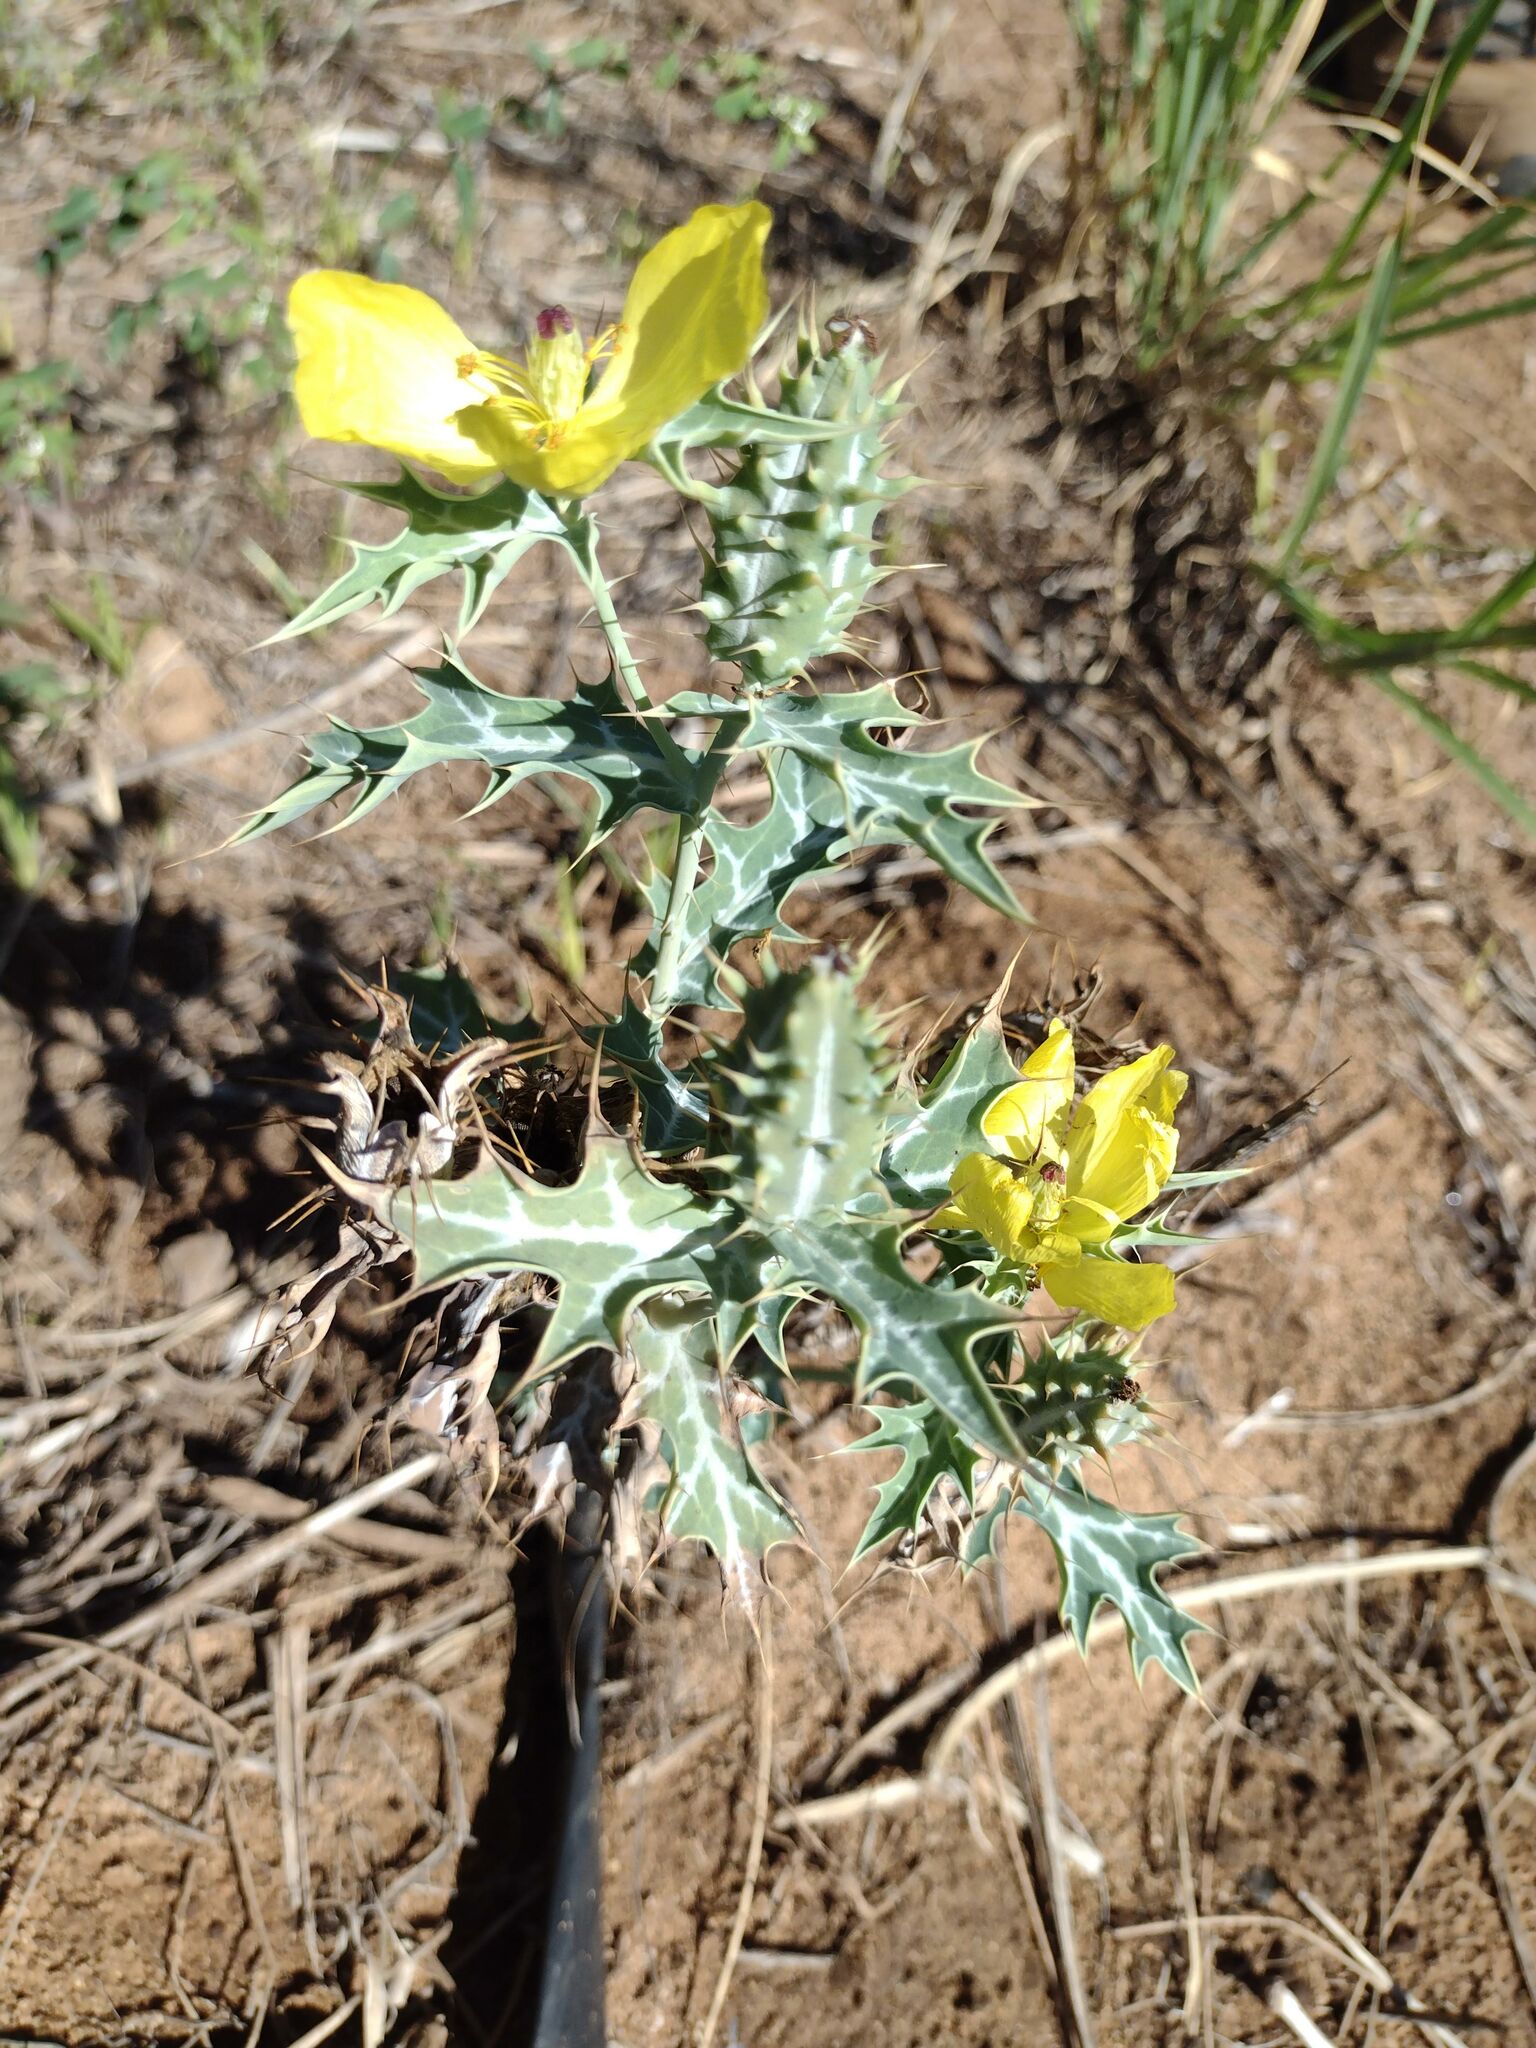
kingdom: Plantae
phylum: Tracheophyta
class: Magnoliopsida
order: Ranunculales
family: Papaveraceae
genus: Argemone
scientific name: Argemone mexicana
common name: Mexican poppy
